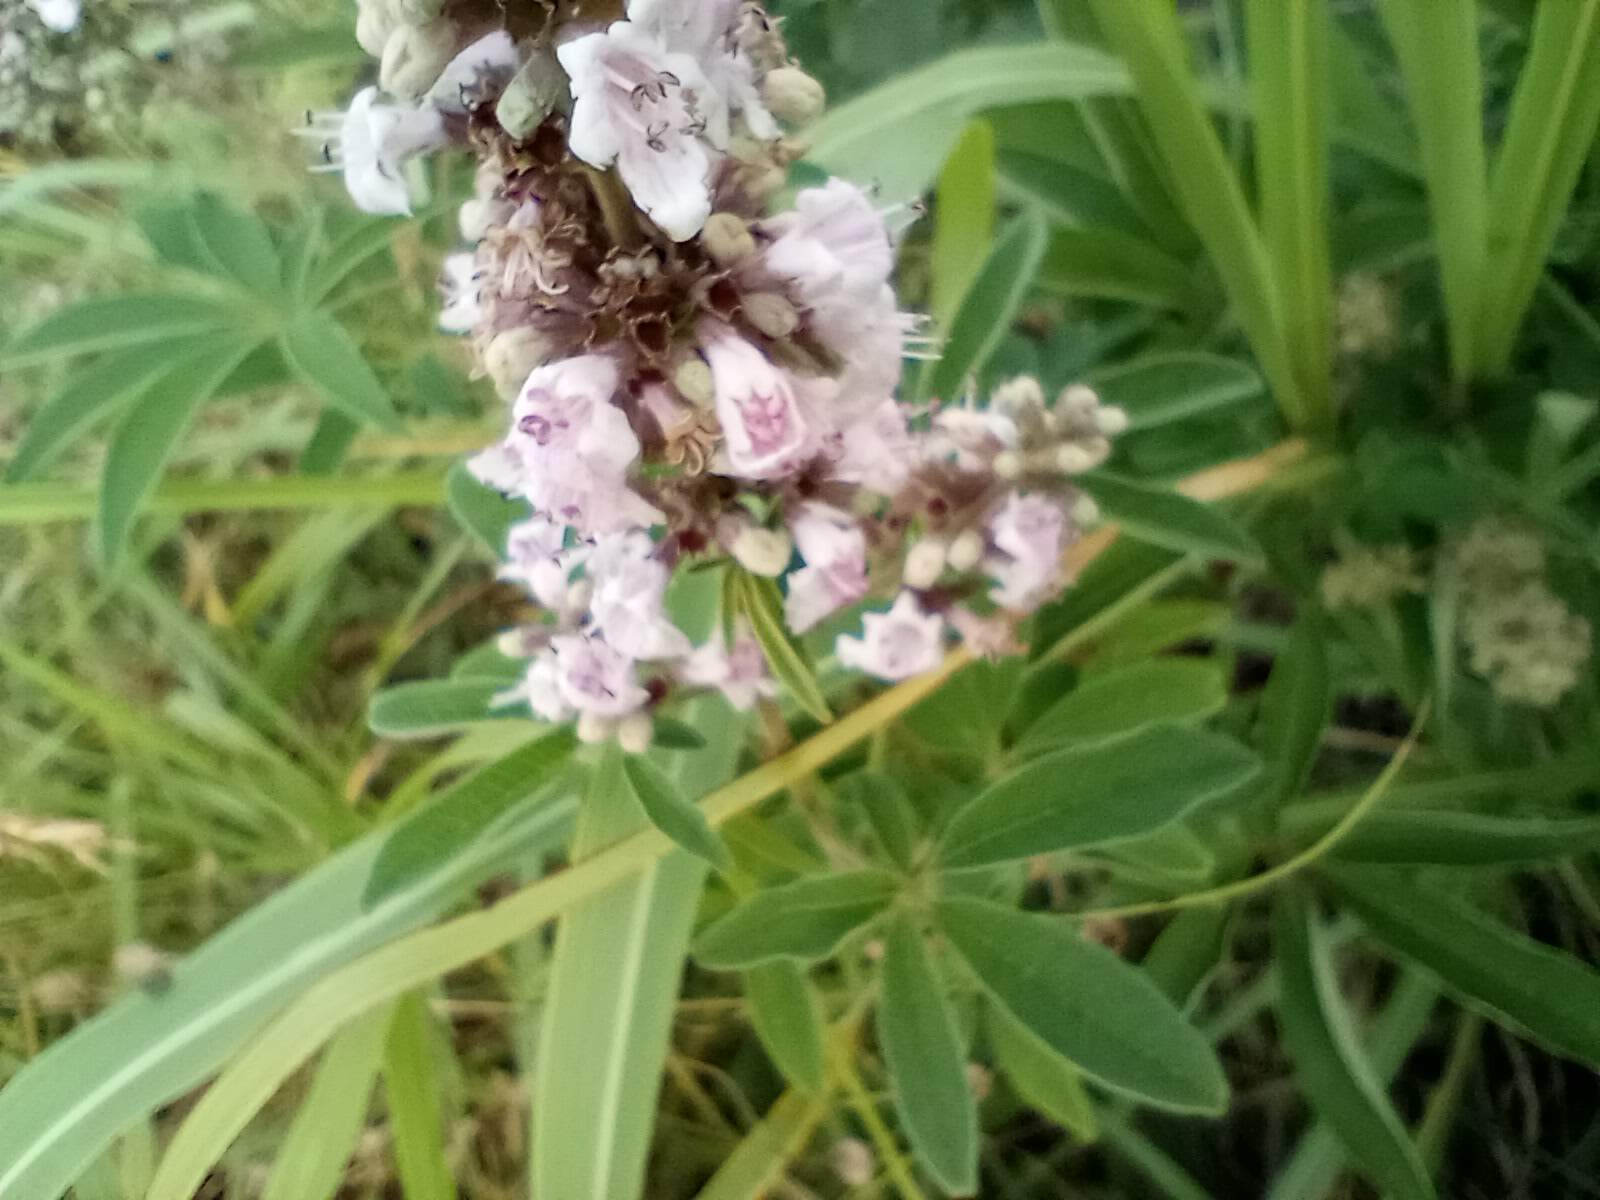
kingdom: Plantae
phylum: Tracheophyta
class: Magnoliopsida
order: Lamiales
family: Lamiaceae
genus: Vitex
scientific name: Vitex agnus-castus
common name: Chasteberry
